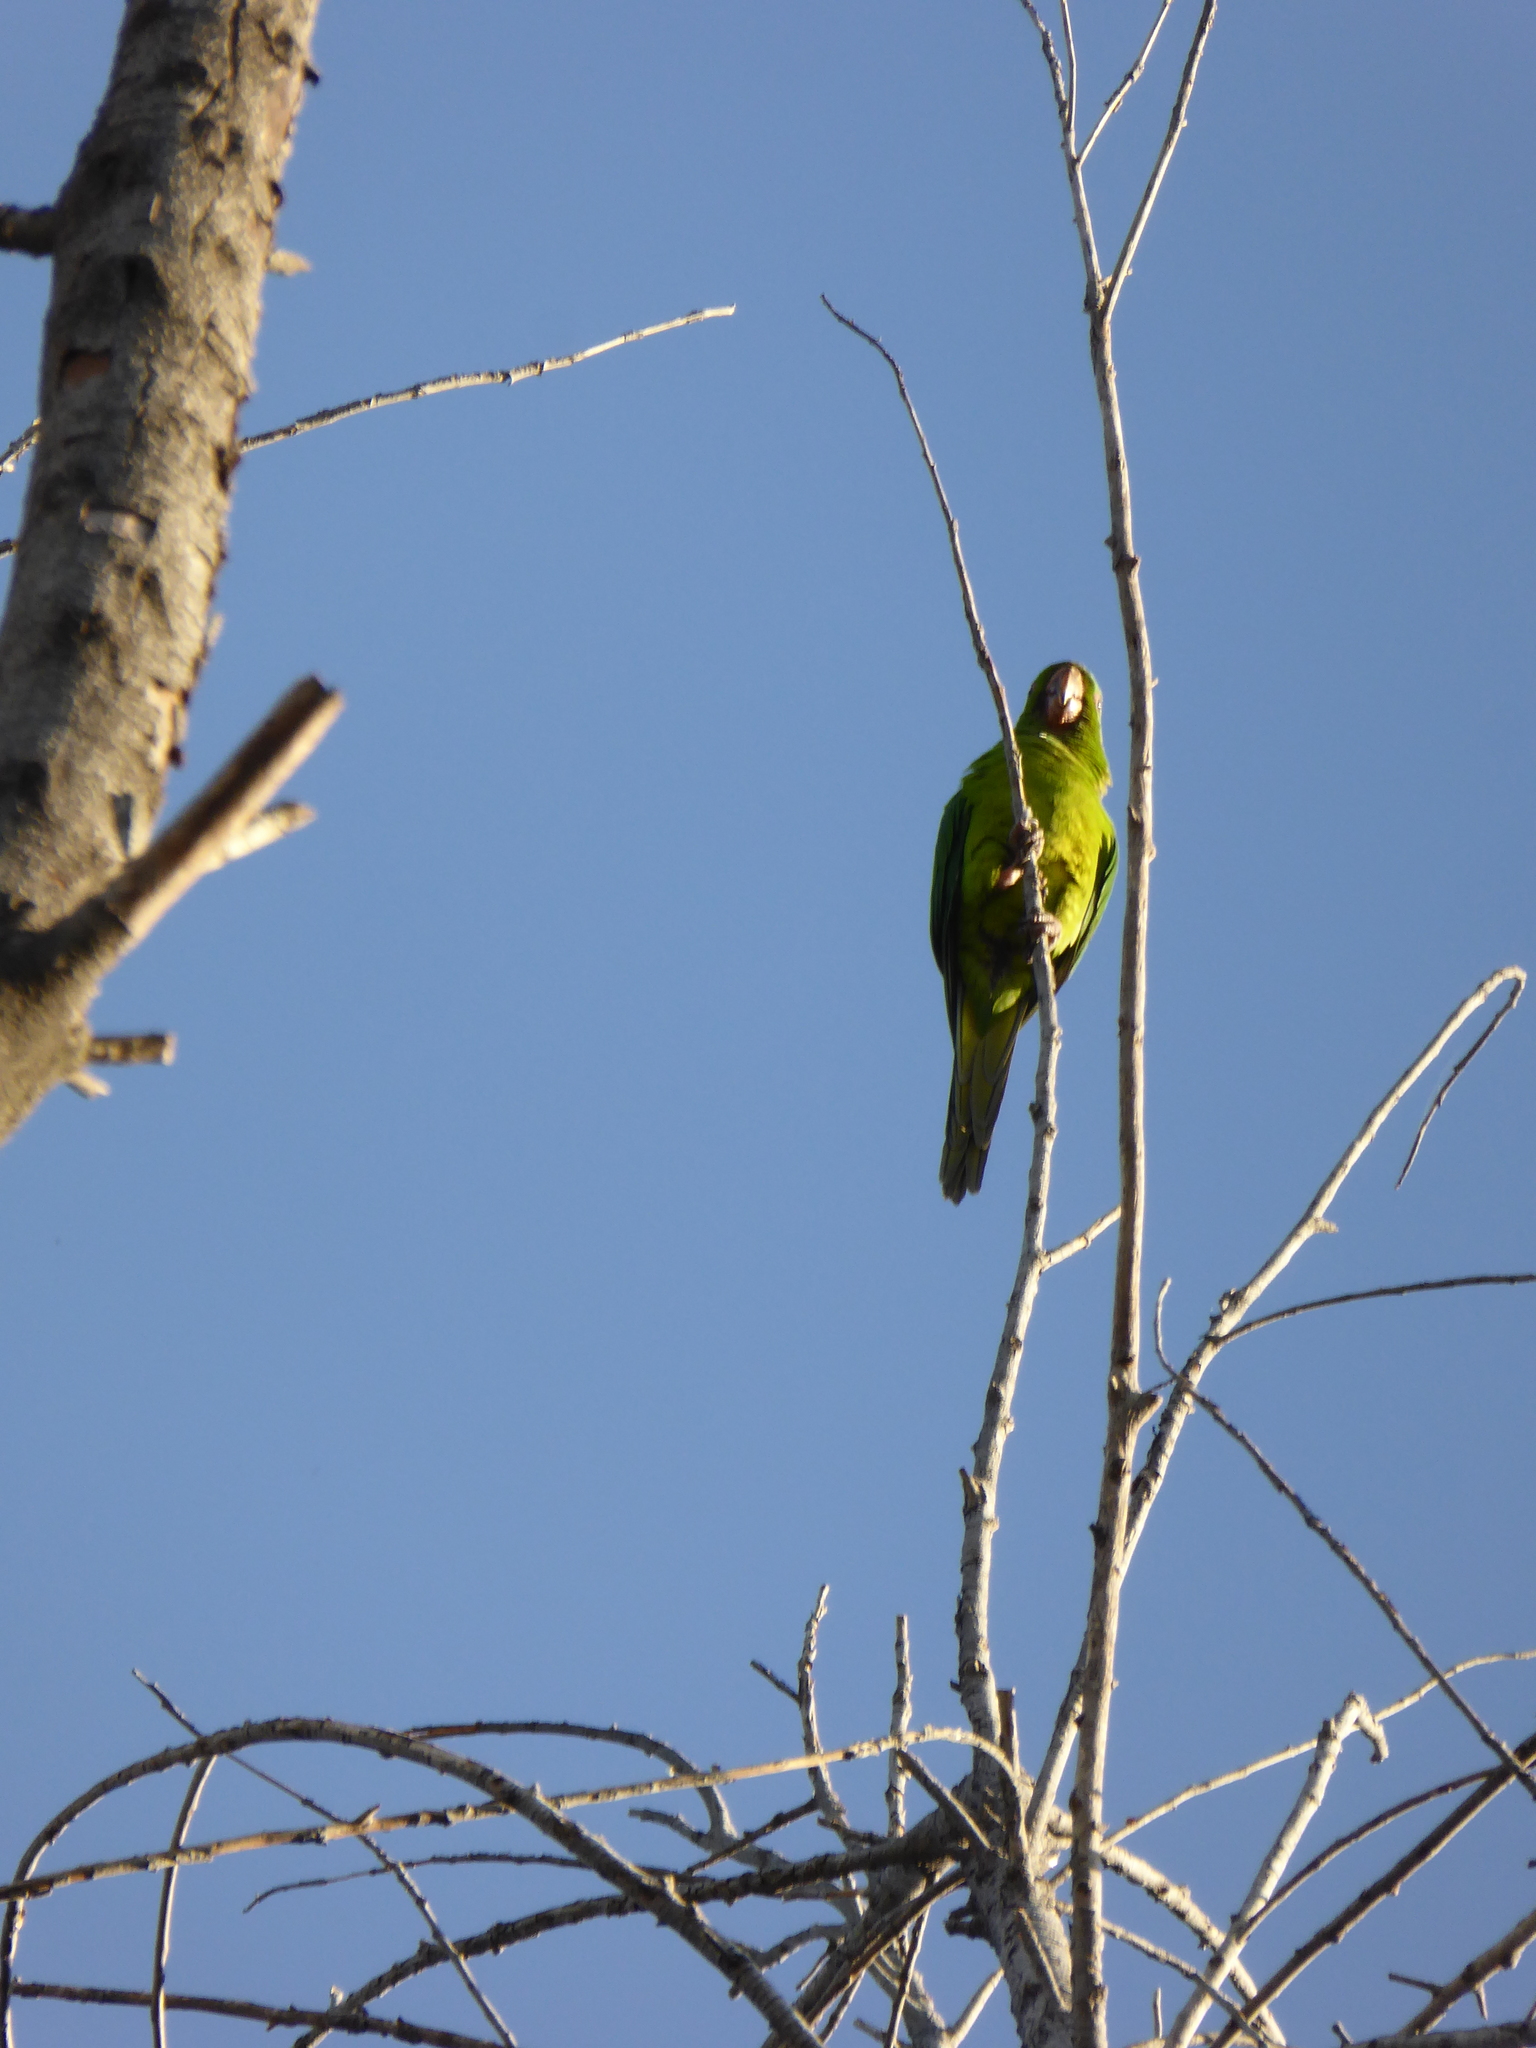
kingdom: Animalia
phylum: Chordata
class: Aves
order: Psittaciformes
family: Psittacidae
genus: Aratinga
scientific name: Aratinga holochlora
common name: Green parakeet
